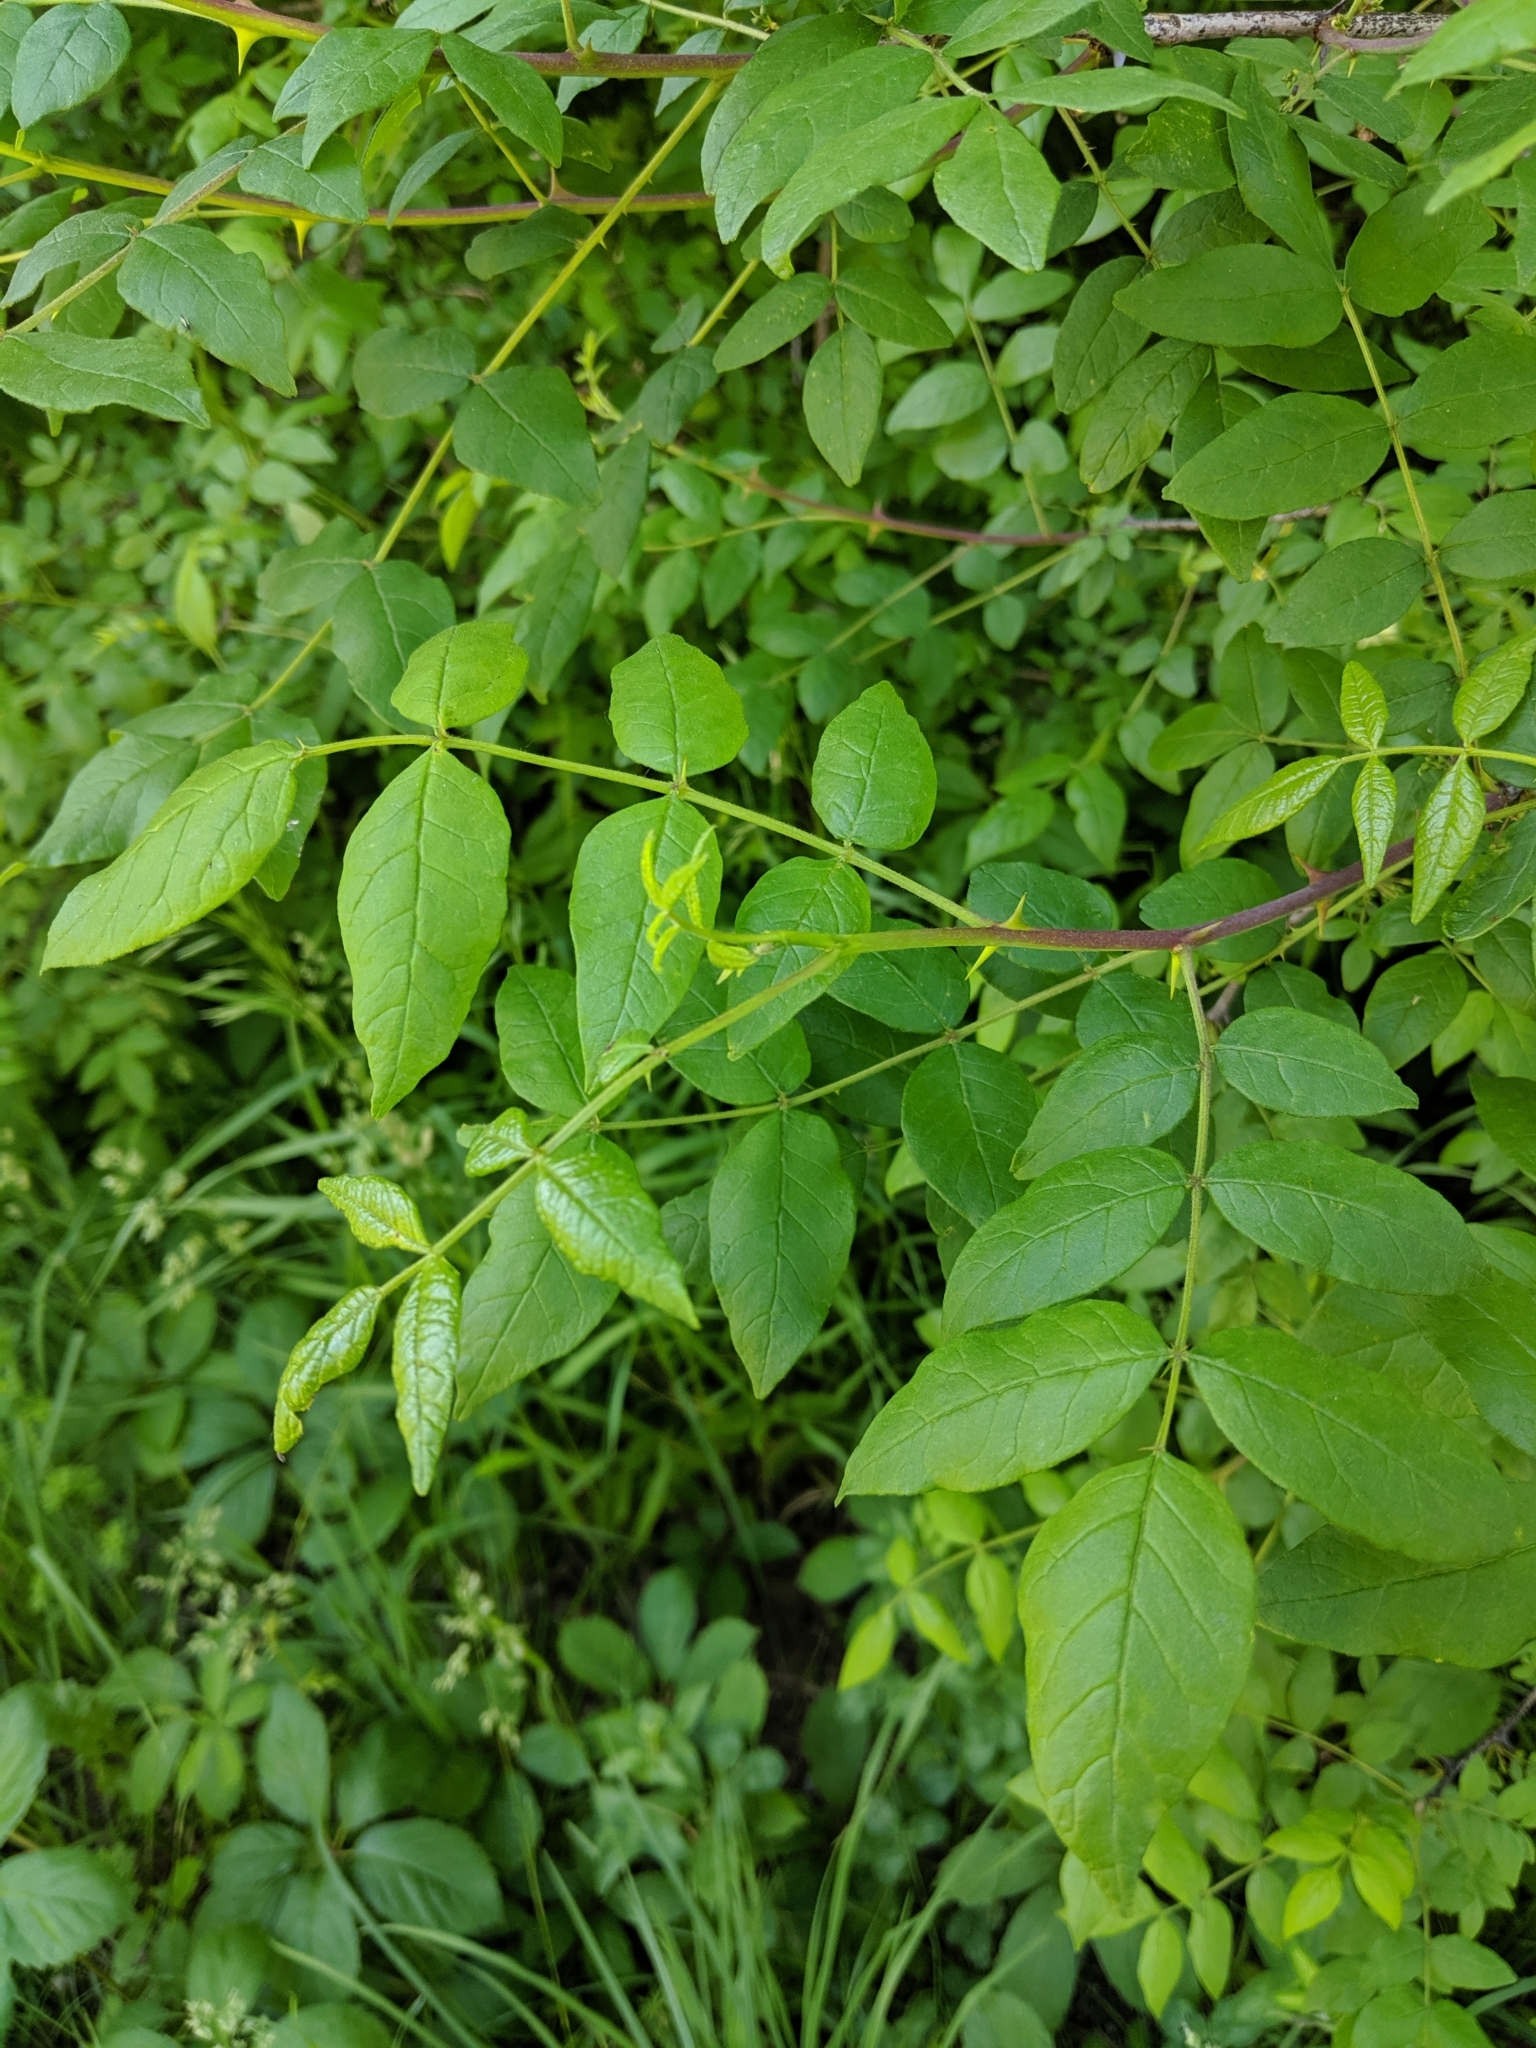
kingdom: Plantae
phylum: Tracheophyta
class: Magnoliopsida
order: Sapindales
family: Rutaceae
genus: Zanthoxylum
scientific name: Zanthoxylum americanum
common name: Northern prickly-ash
